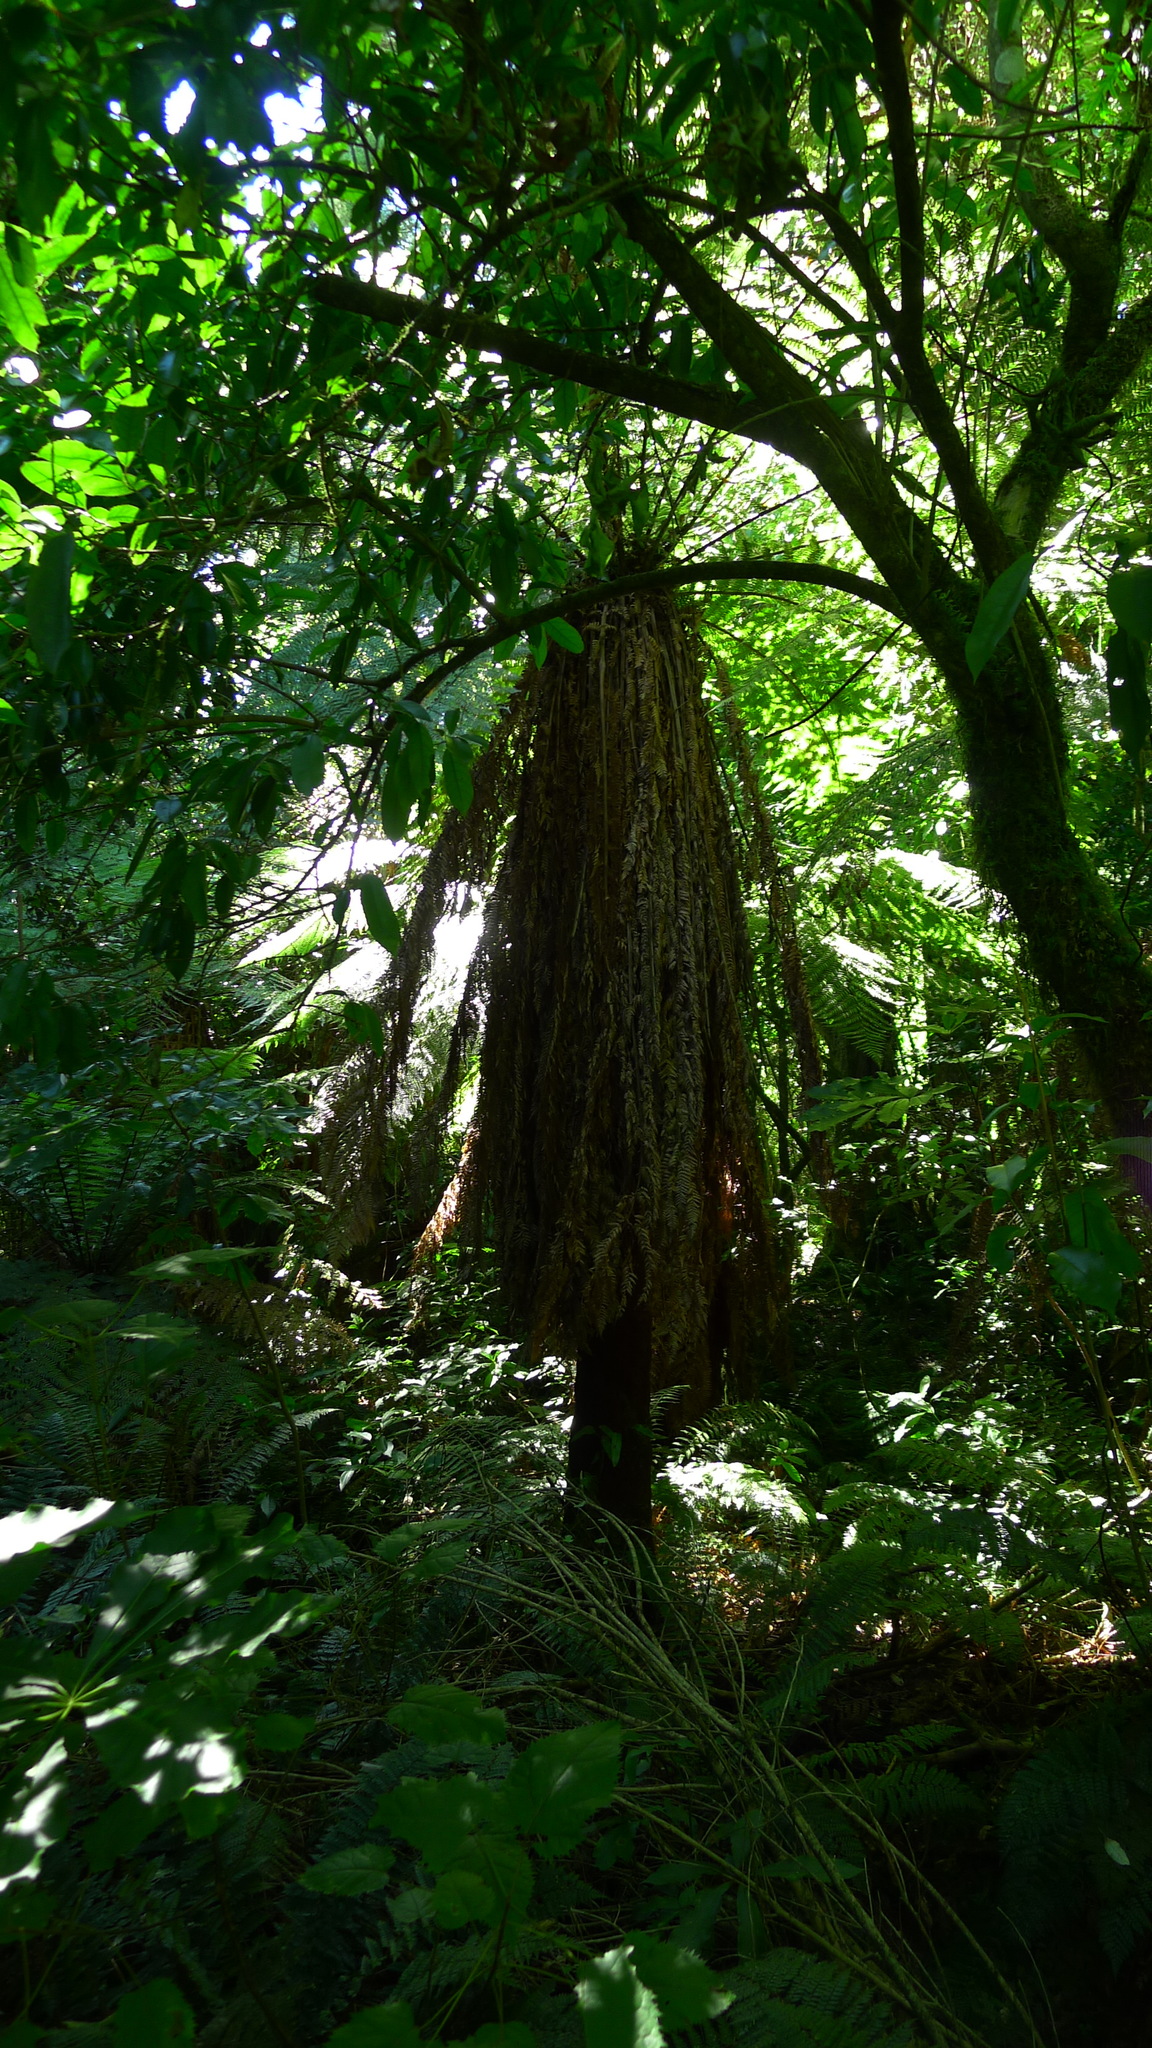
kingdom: Plantae
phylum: Tracheophyta
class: Polypodiopsida
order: Cyatheales
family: Dicksoniaceae
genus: Dicksonia
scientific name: Dicksonia fibrosa
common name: Golden tree fern
